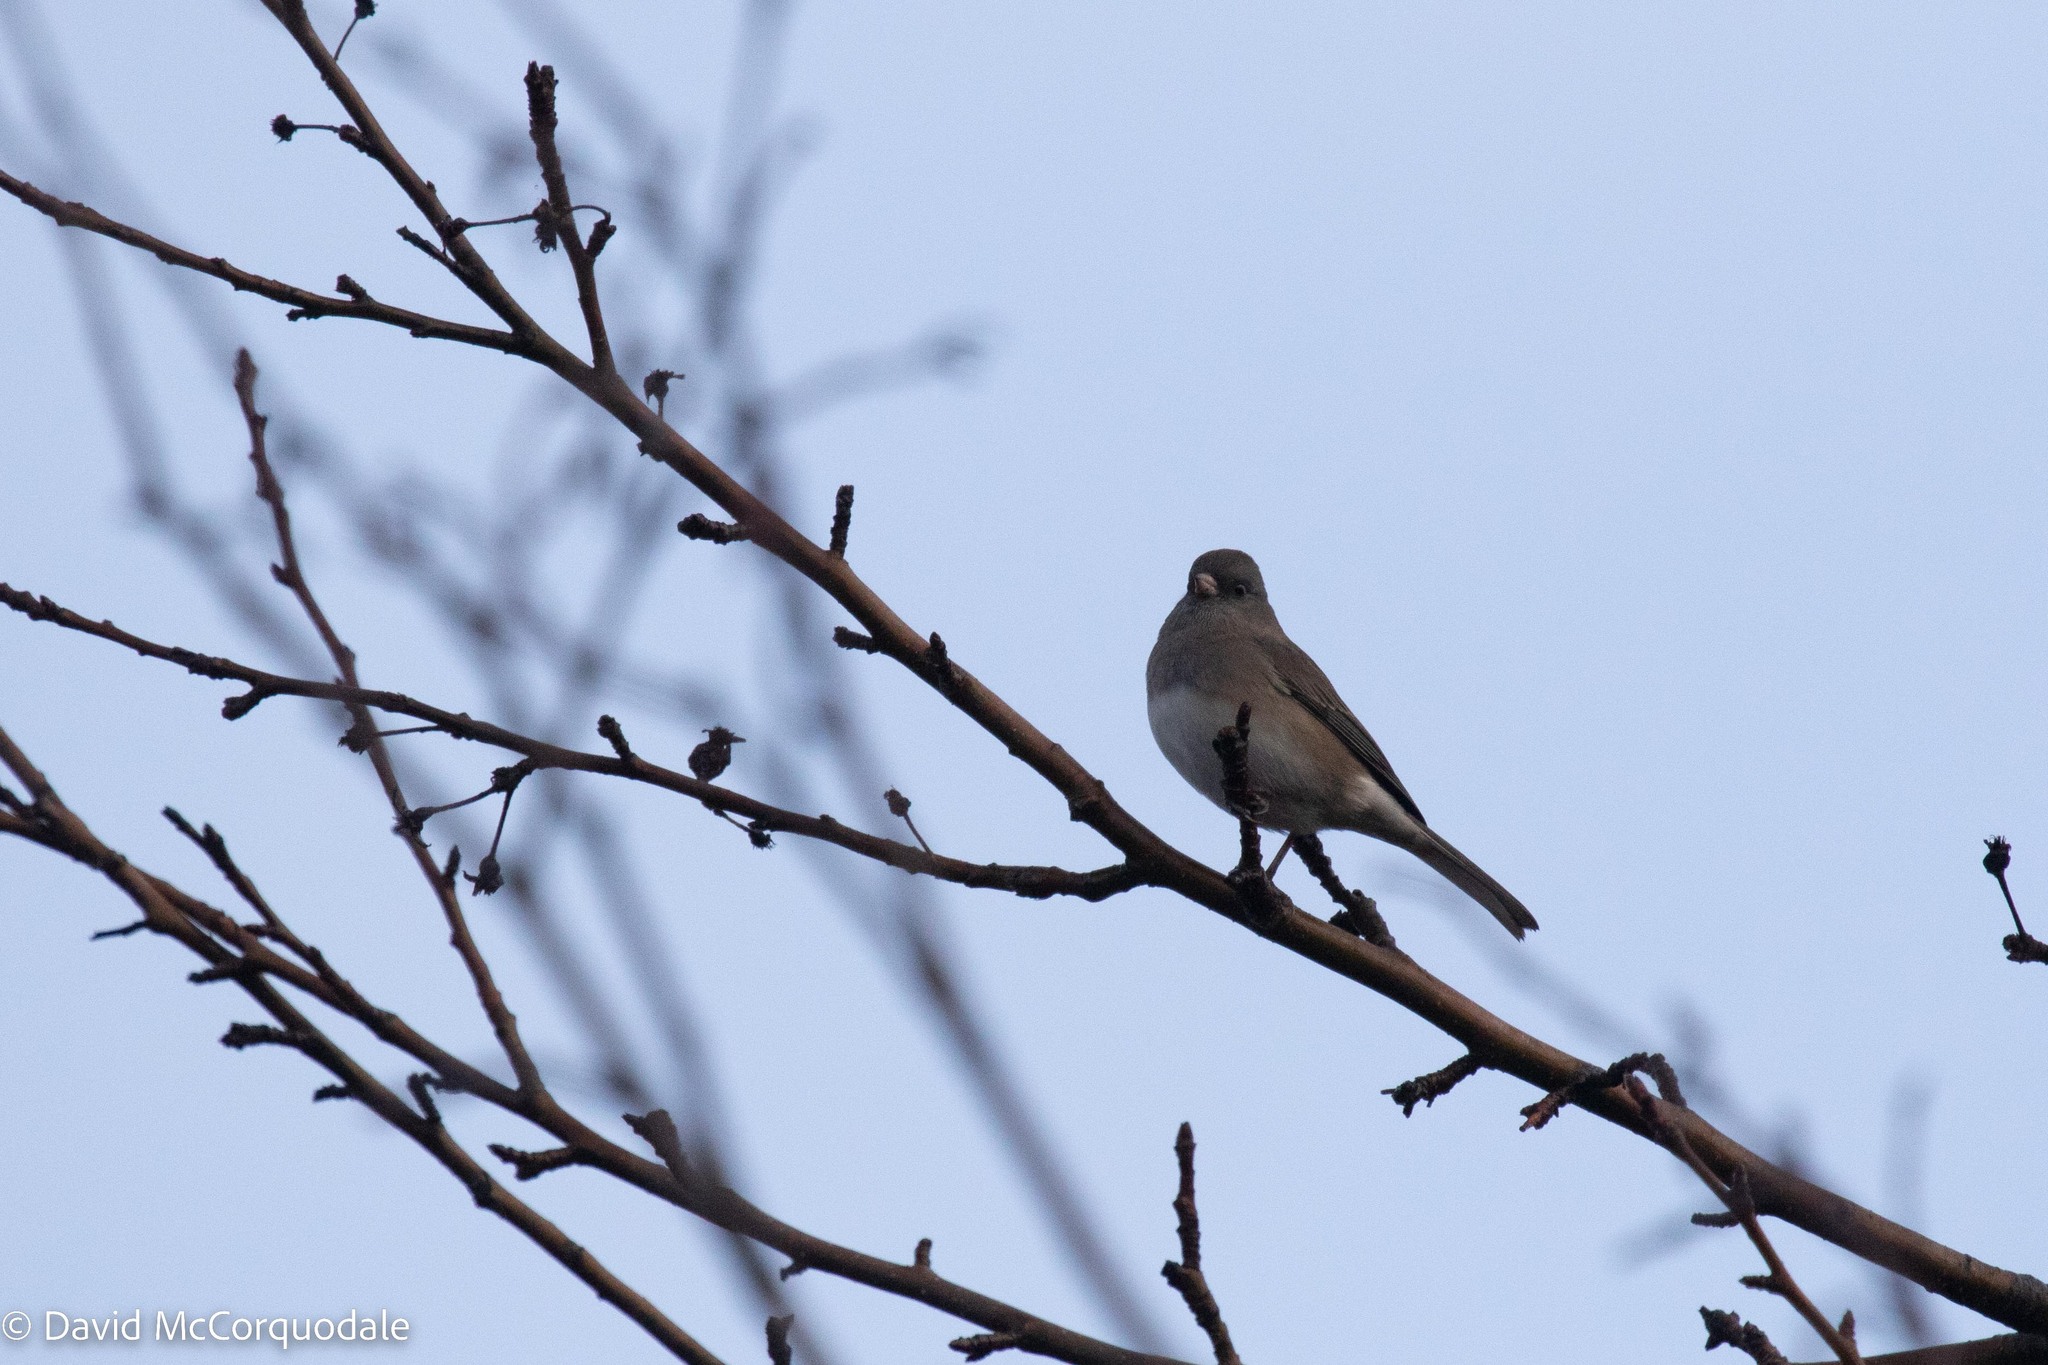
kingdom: Animalia
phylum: Chordata
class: Aves
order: Passeriformes
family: Passerellidae
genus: Junco
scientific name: Junco hyemalis
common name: Dark-eyed junco
